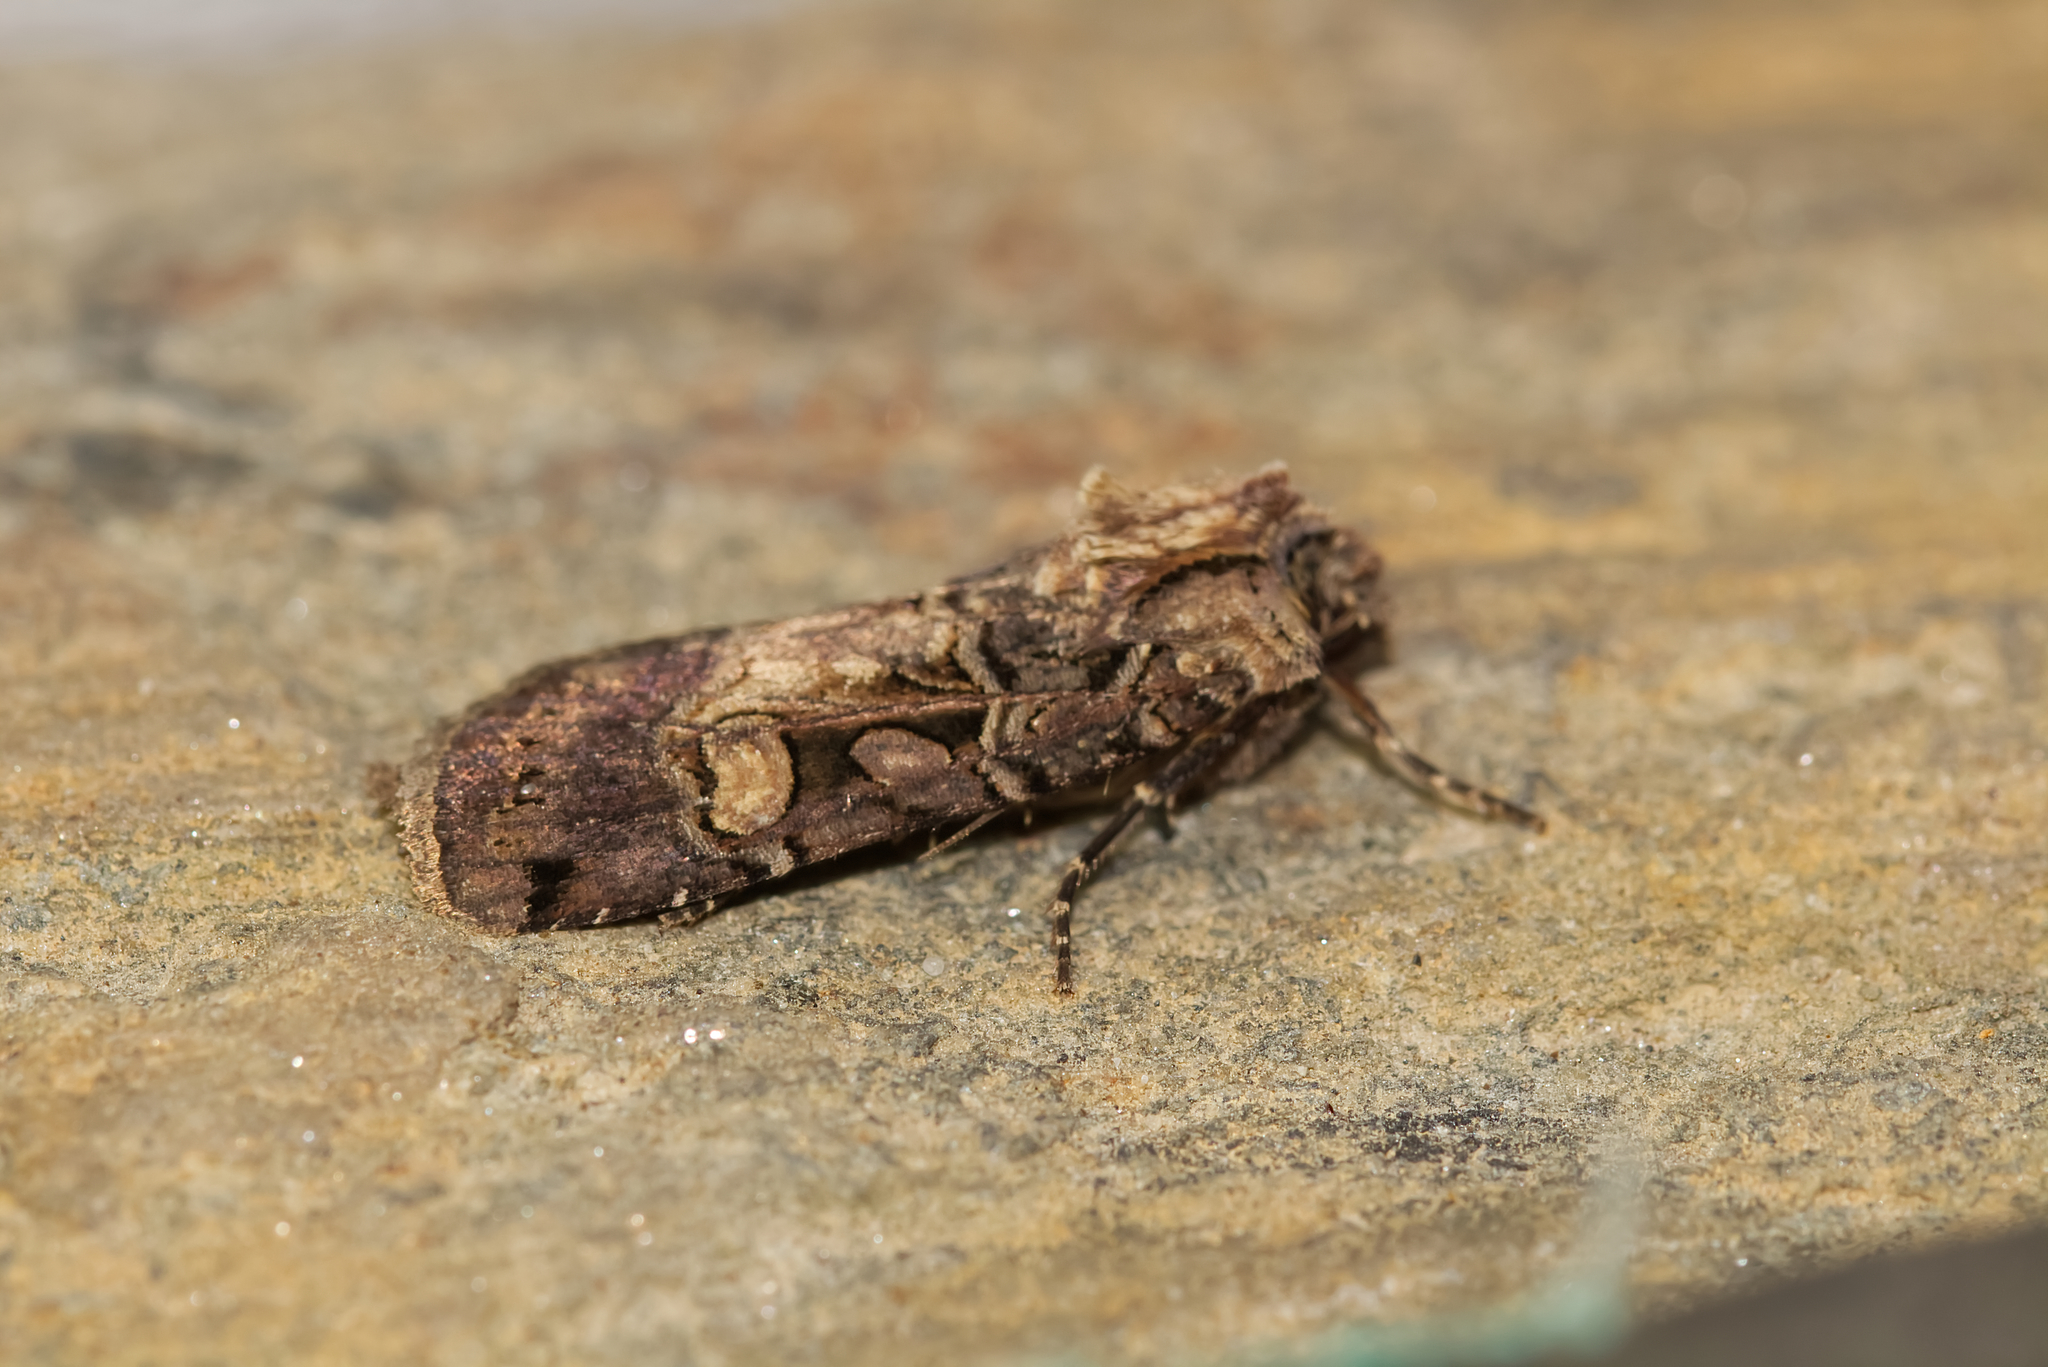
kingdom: Animalia
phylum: Arthropoda
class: Insecta
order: Lepidoptera
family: Noctuidae
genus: Opigena
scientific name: Opigena polygona
